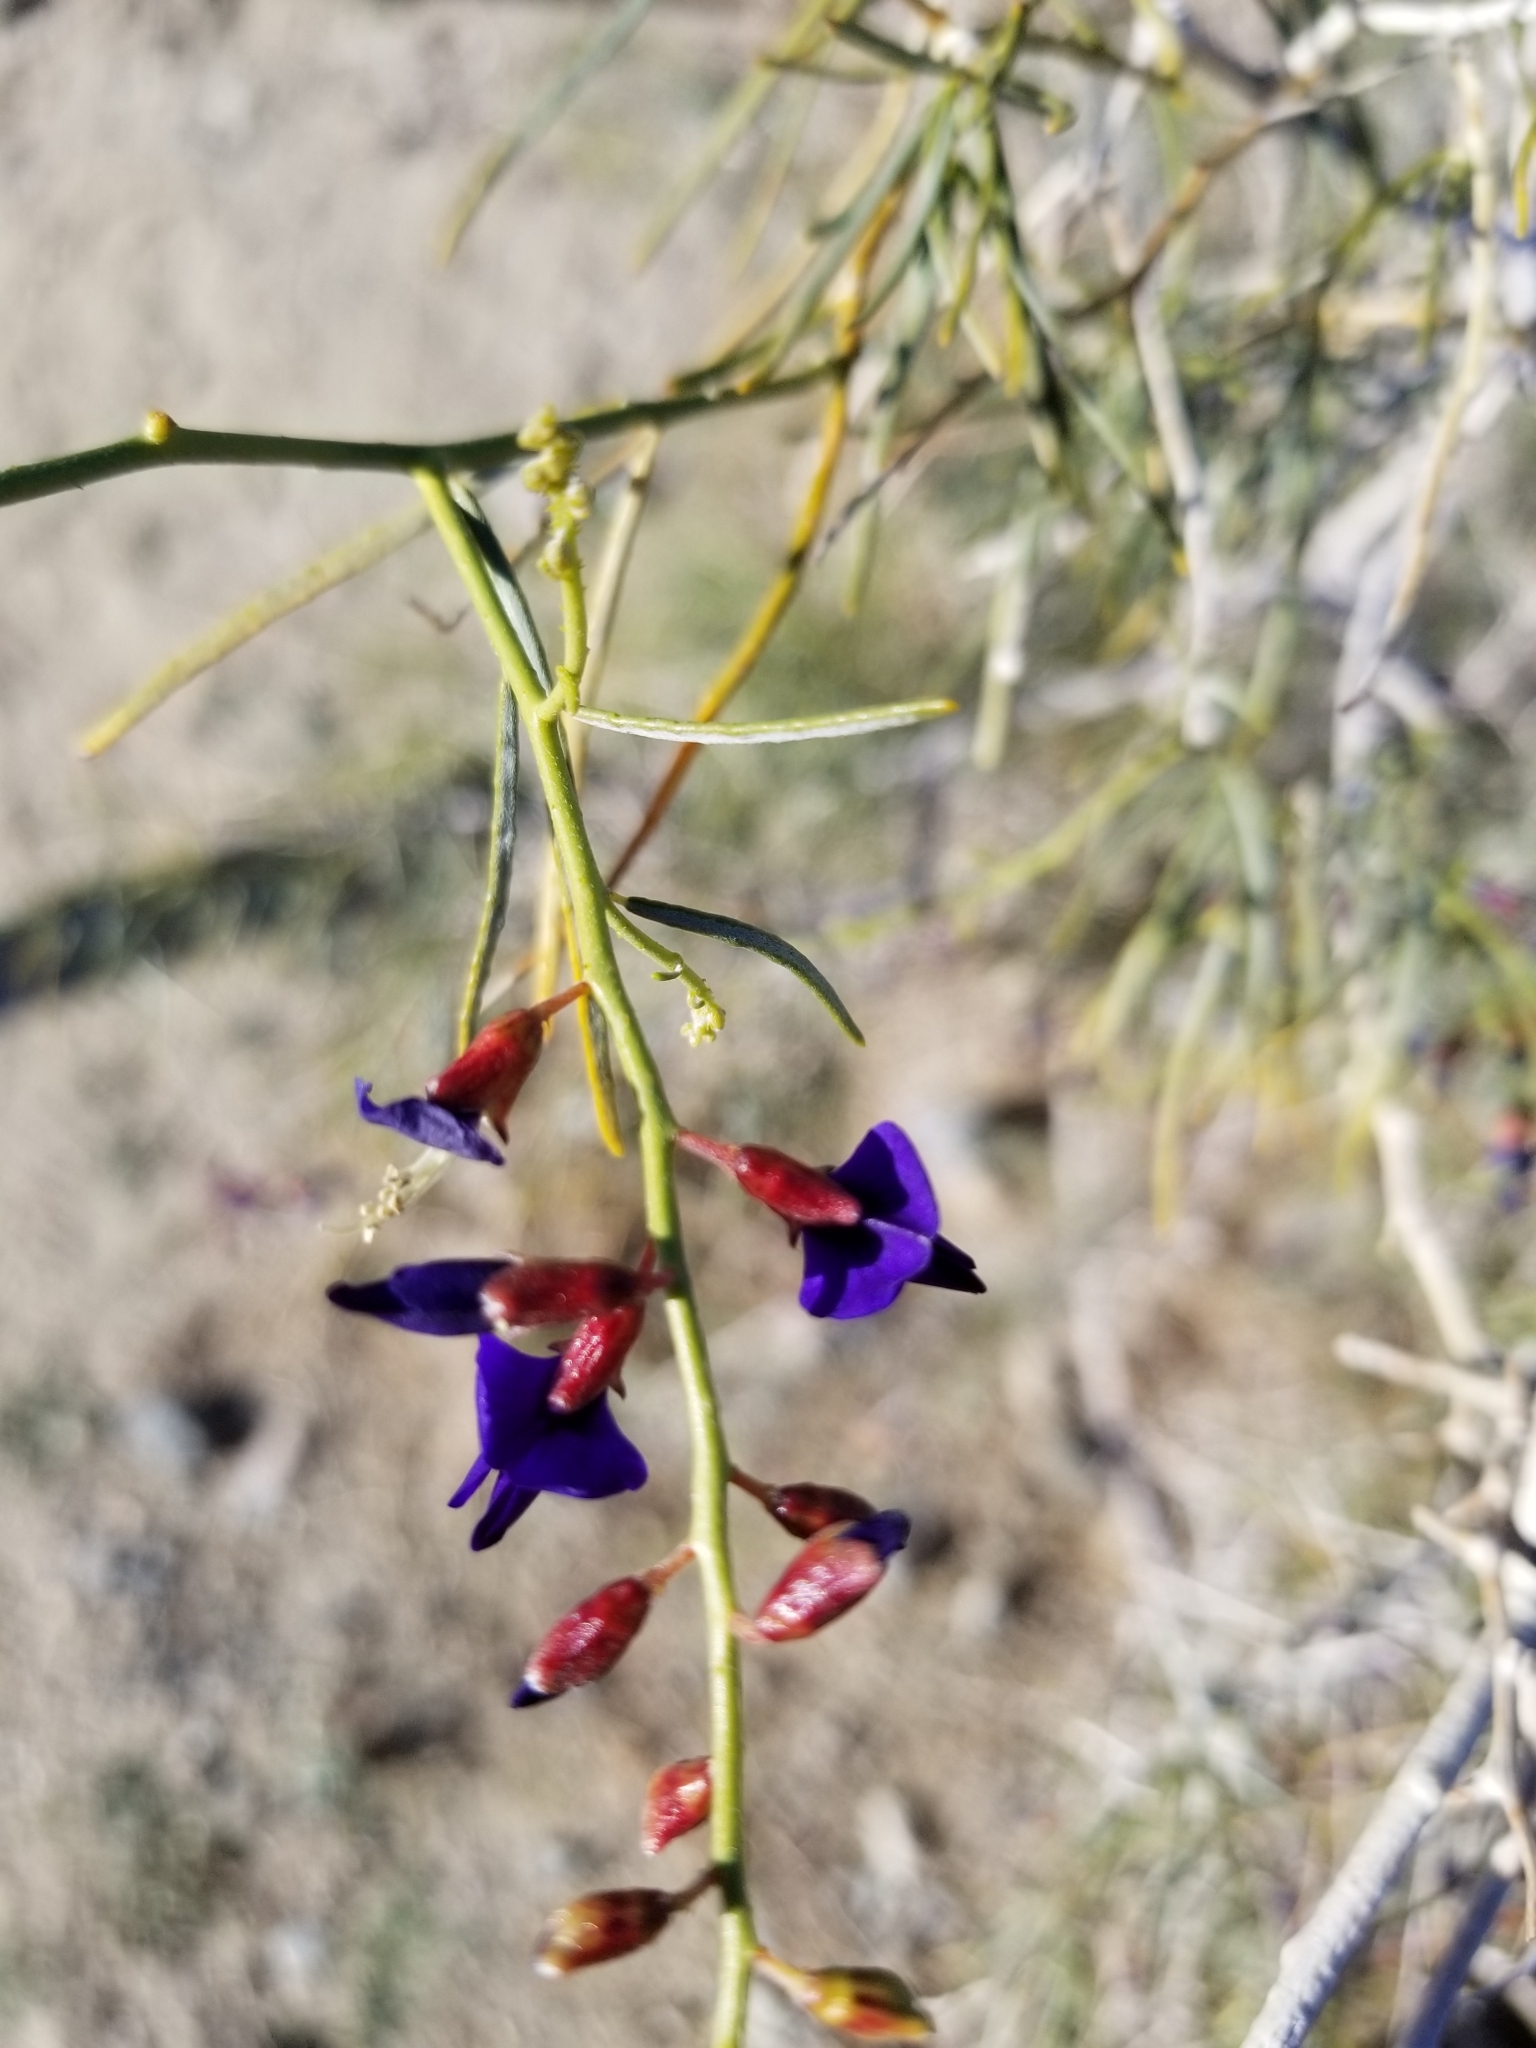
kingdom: Plantae
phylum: Tracheophyta
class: Magnoliopsida
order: Fabales
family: Fabaceae
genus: Psorothamnus
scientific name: Psorothamnus schottii
